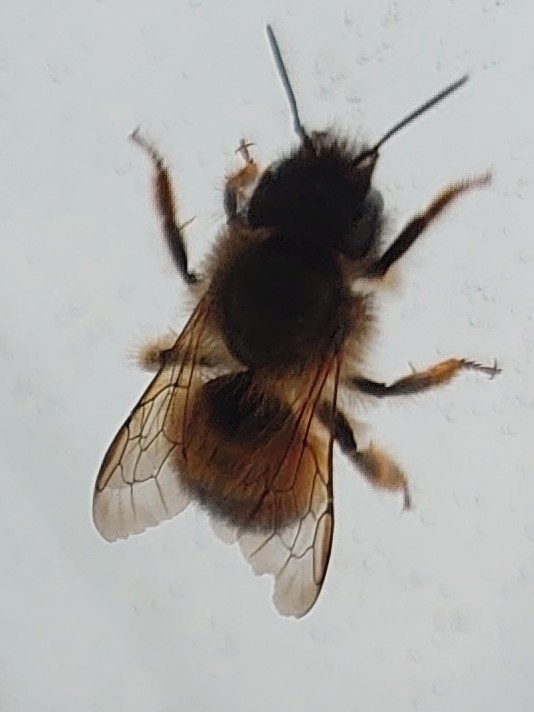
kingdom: Animalia
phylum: Arthropoda
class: Insecta
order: Hymenoptera
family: Megachilidae
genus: Osmia
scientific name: Osmia bicornis
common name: Red mason bee
